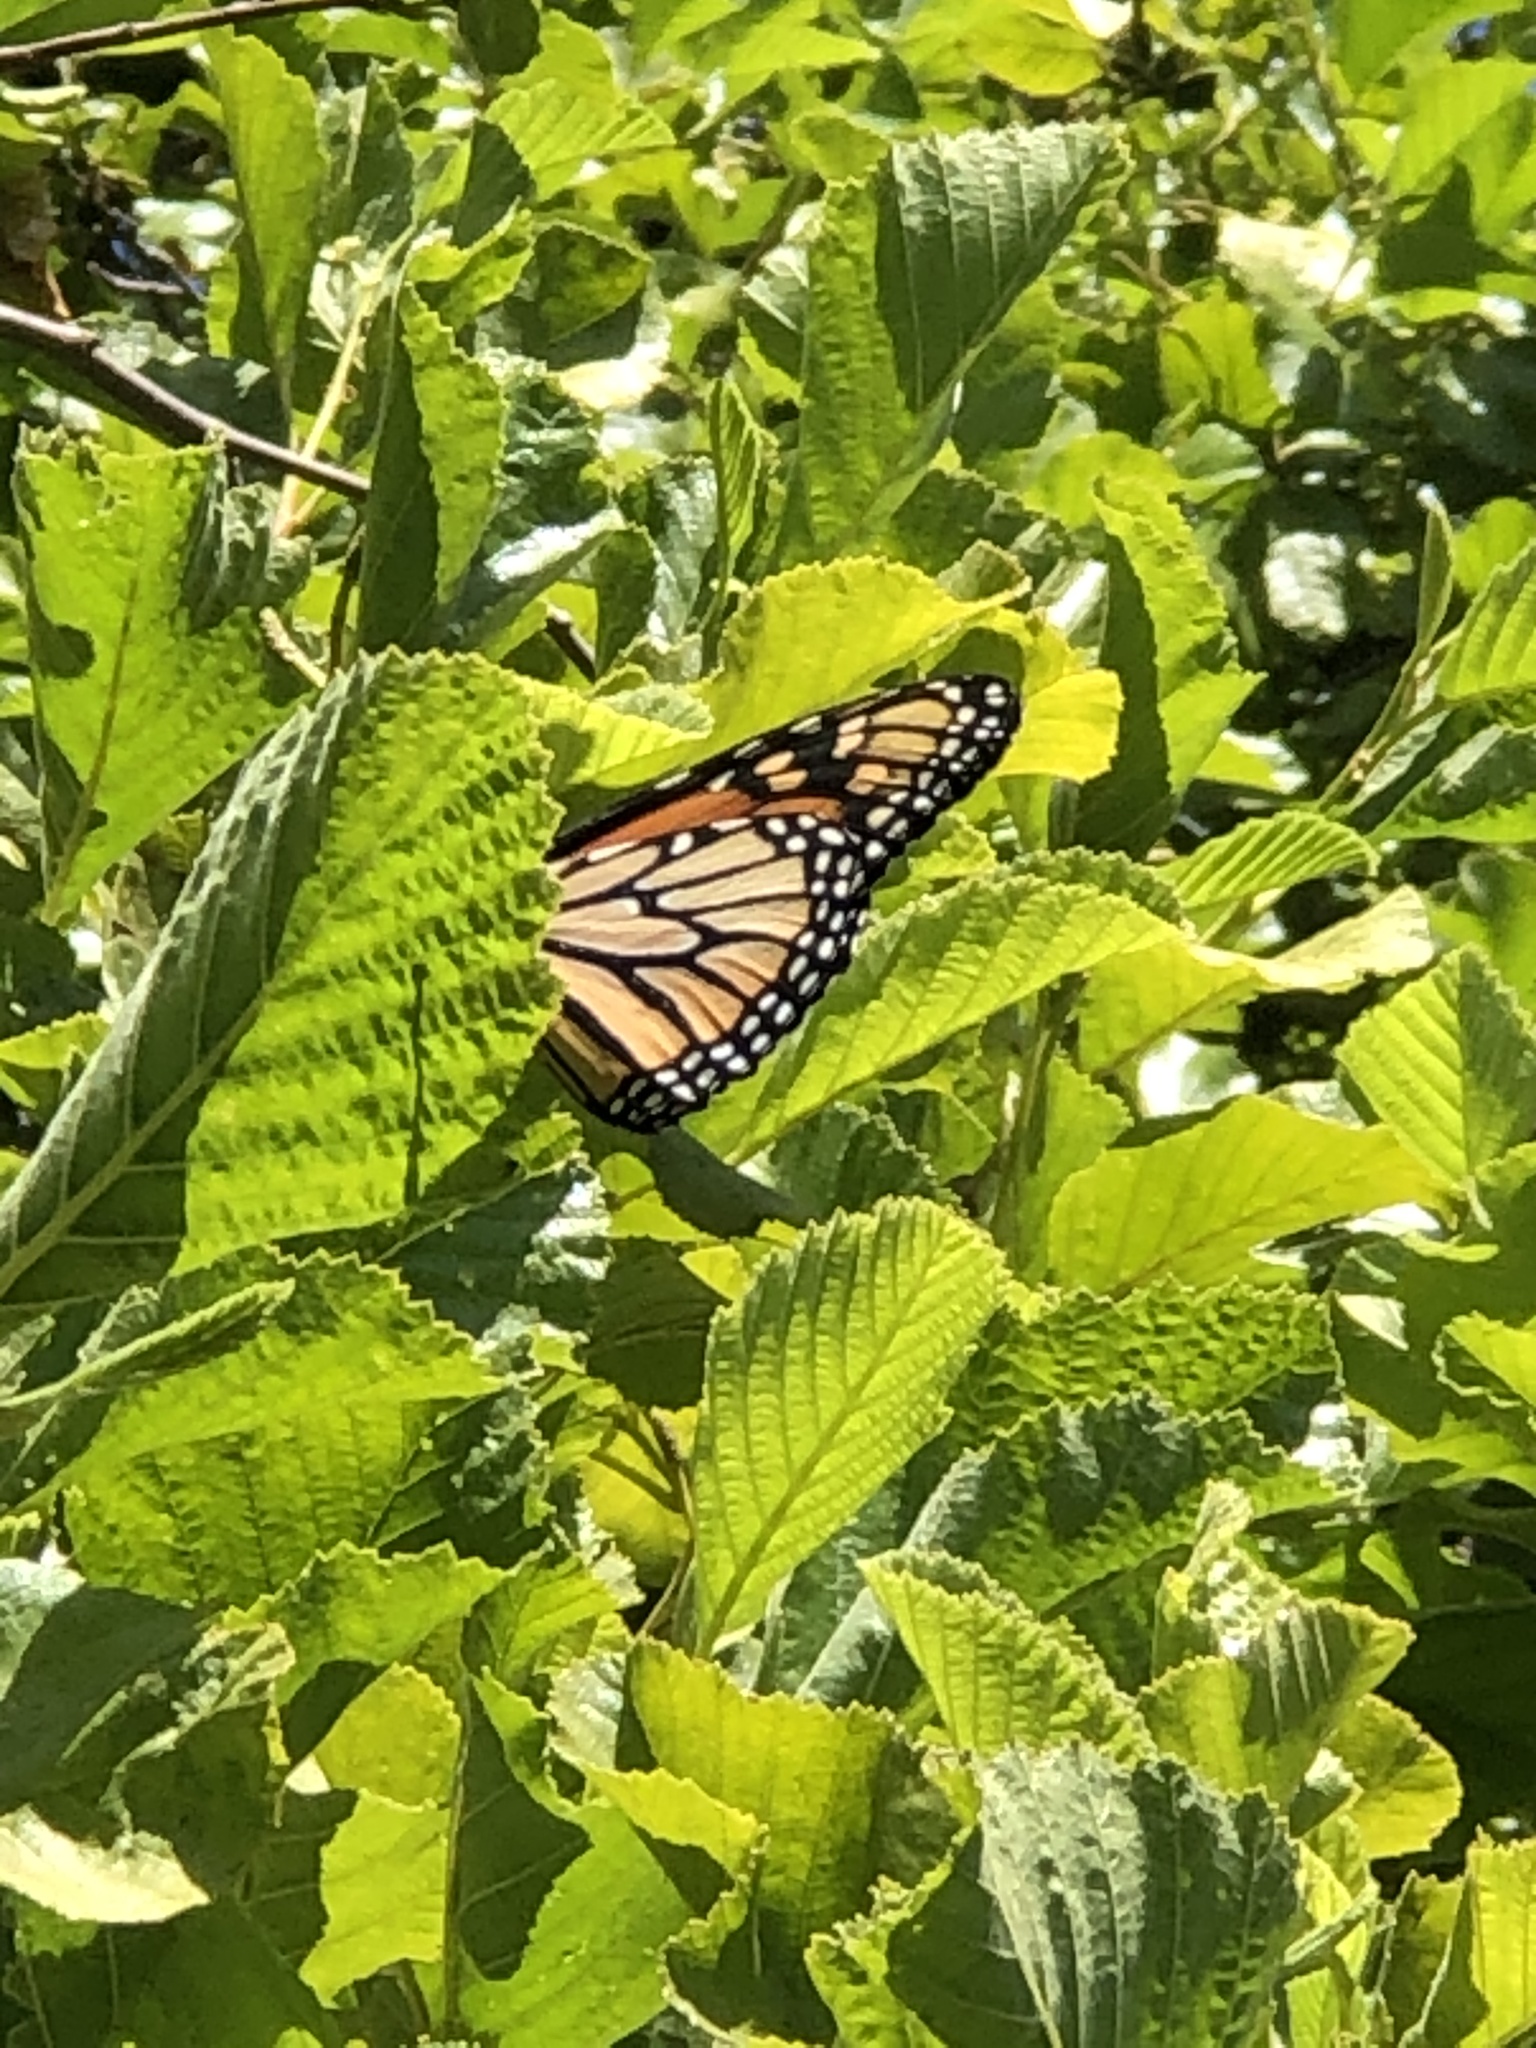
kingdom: Animalia
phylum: Arthropoda
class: Insecta
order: Lepidoptera
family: Nymphalidae
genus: Danaus
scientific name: Danaus plexippus
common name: Monarch
